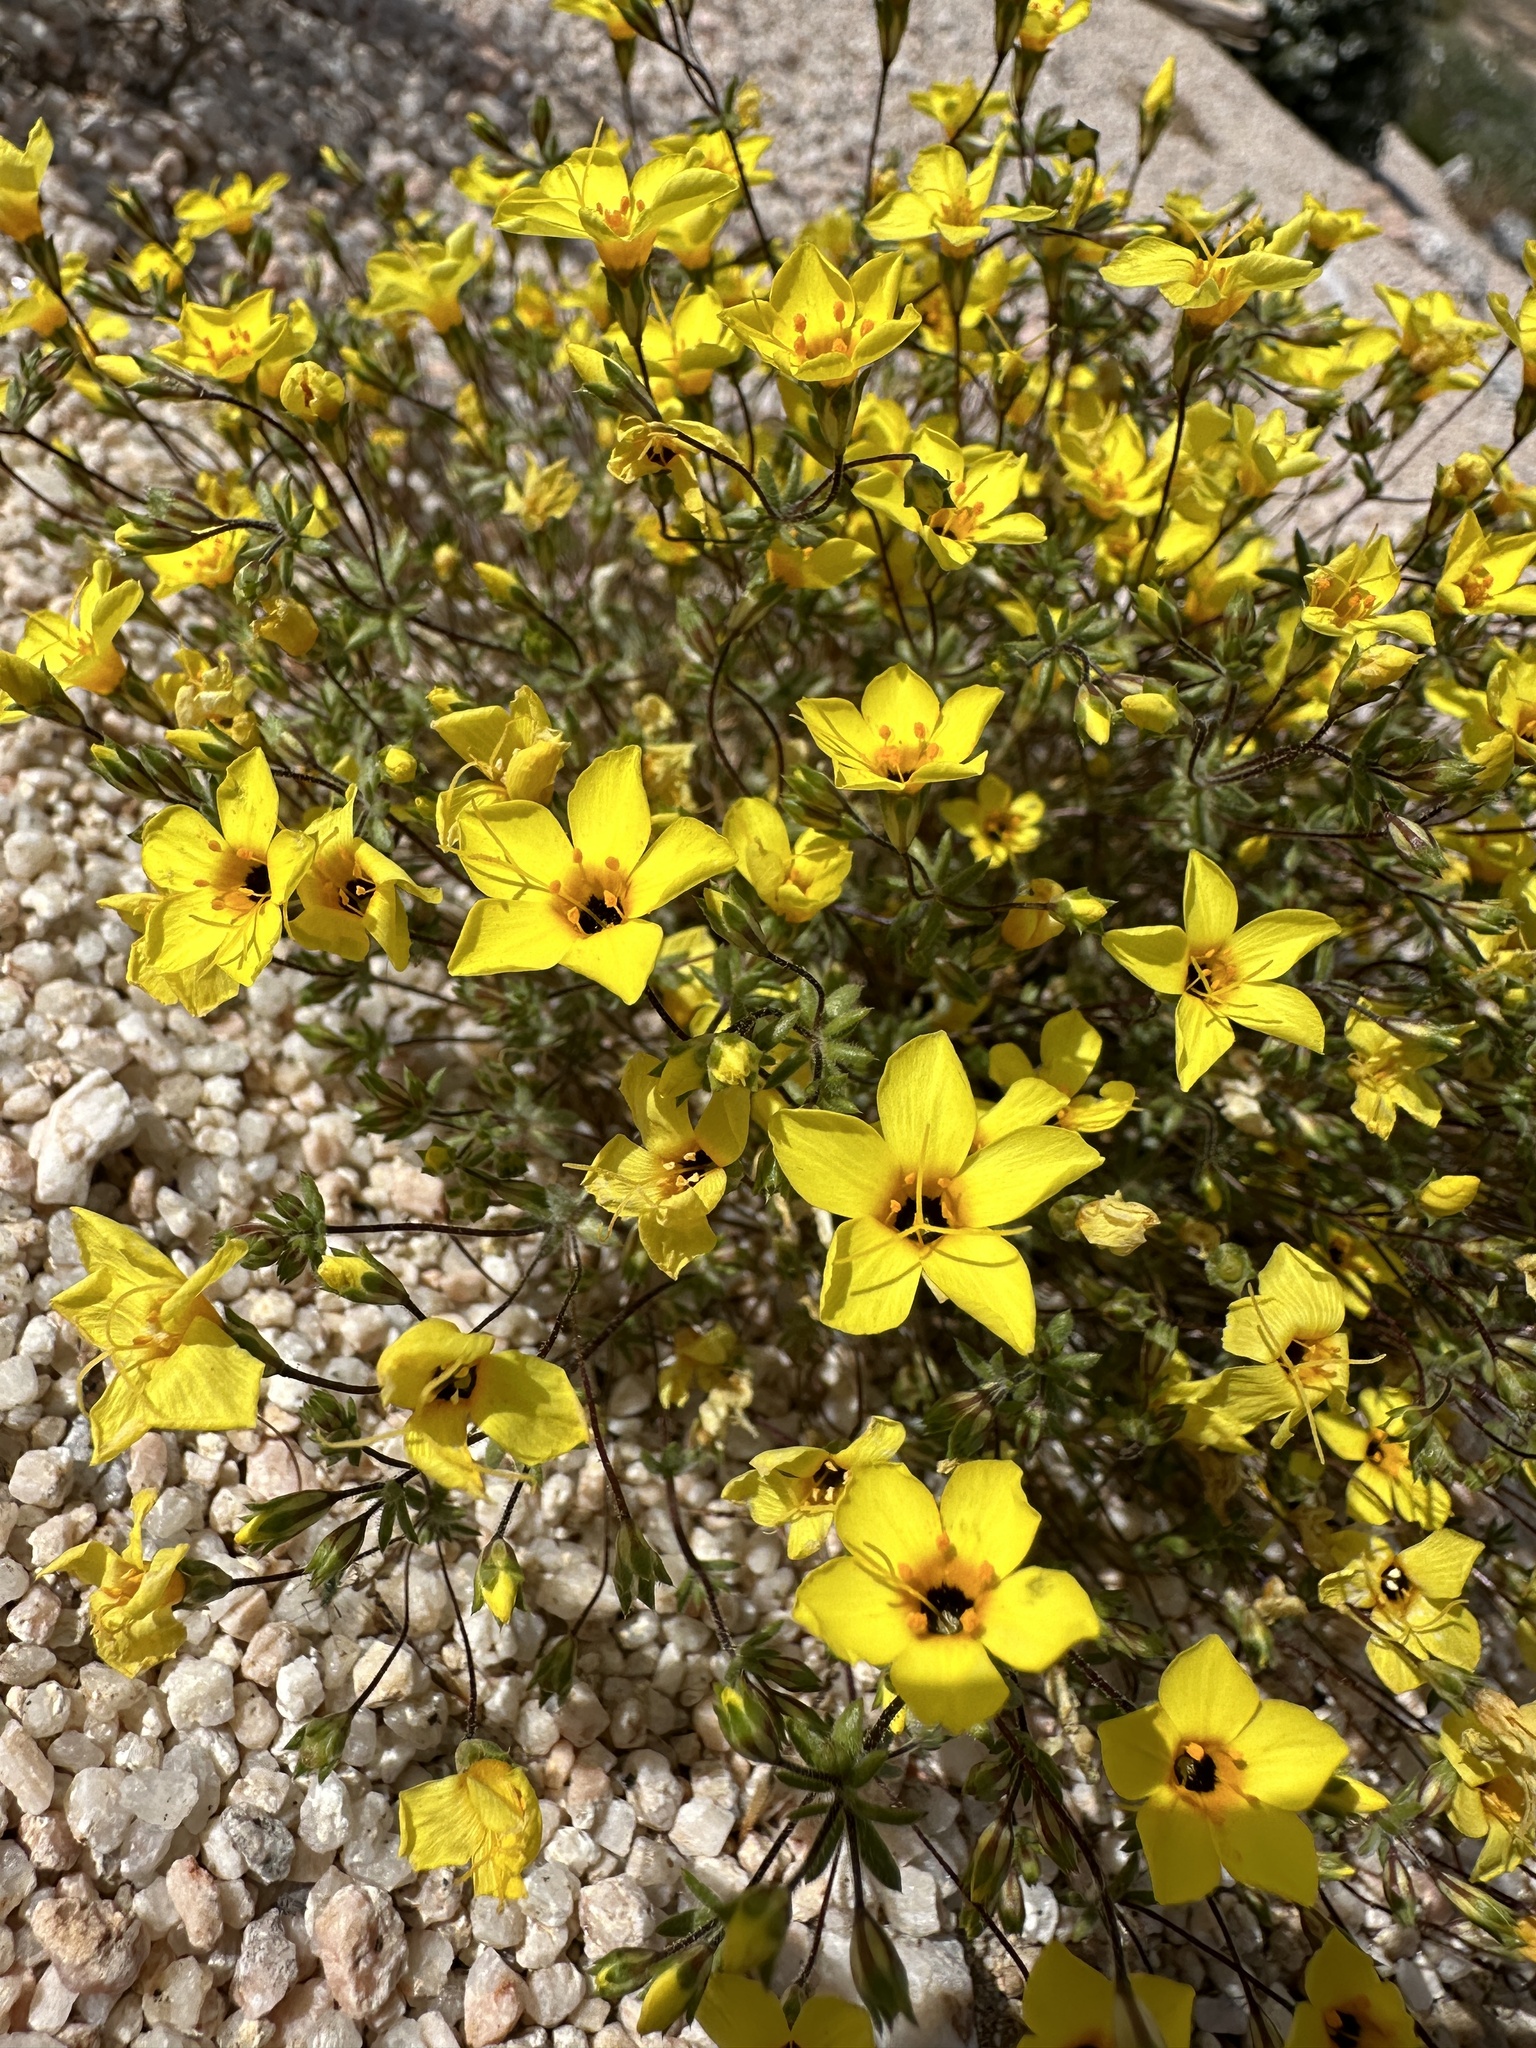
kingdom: Plantae
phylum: Tracheophyta
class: Magnoliopsida
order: Ericales
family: Polemoniaceae
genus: Leptosiphon
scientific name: Leptosiphon chrysanthus
